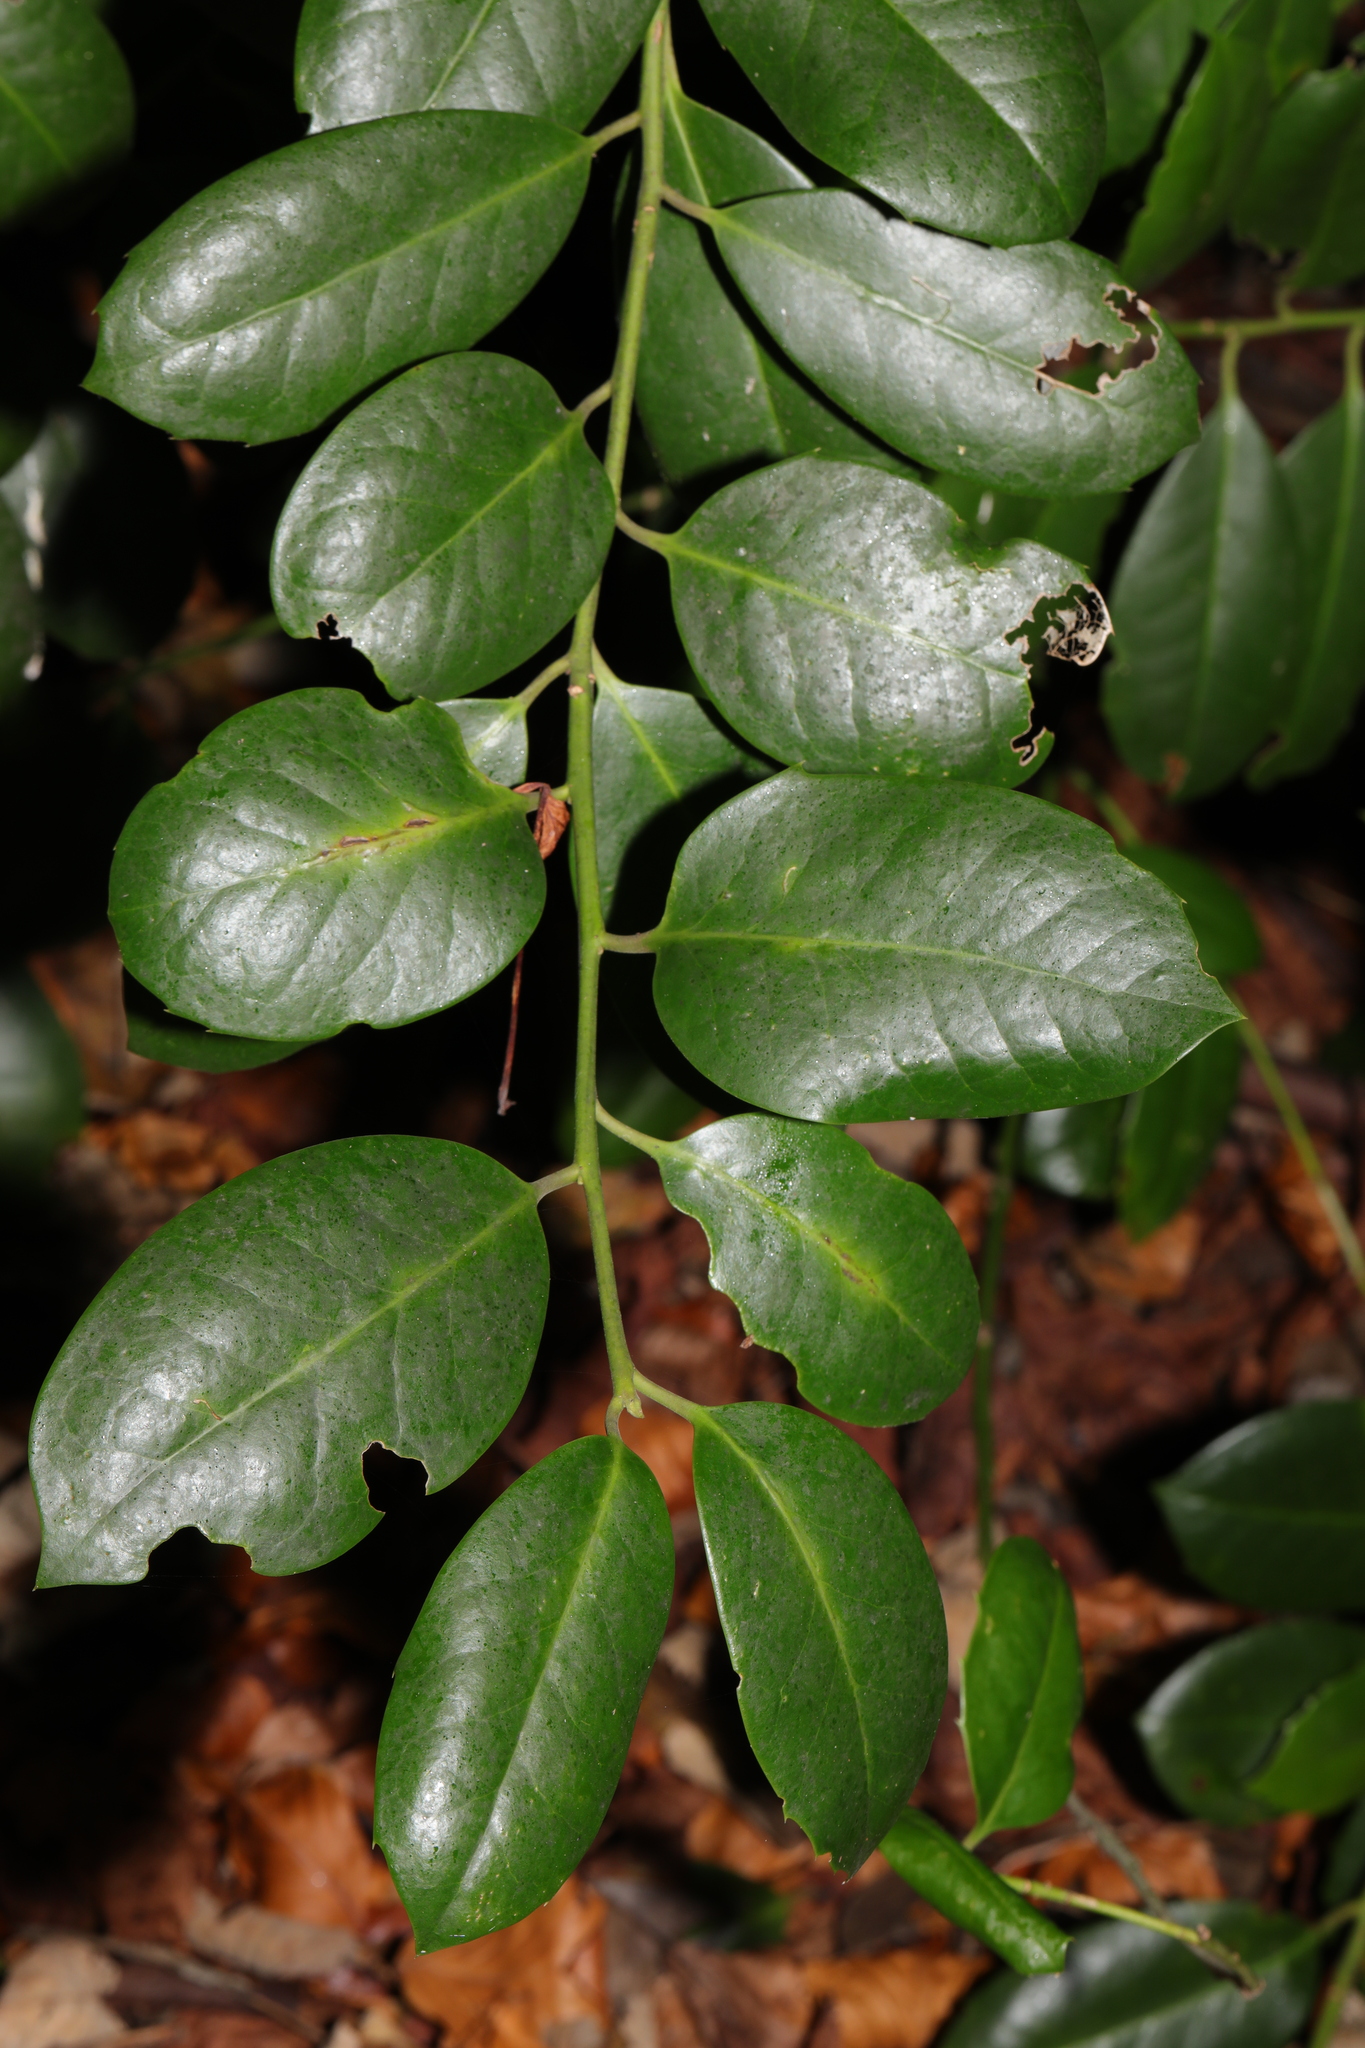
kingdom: Plantae
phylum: Tracheophyta
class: Magnoliopsida
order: Aquifoliales
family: Aquifoliaceae
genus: Ilex
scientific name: Ilex altaclerensis
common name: Highclere holly
